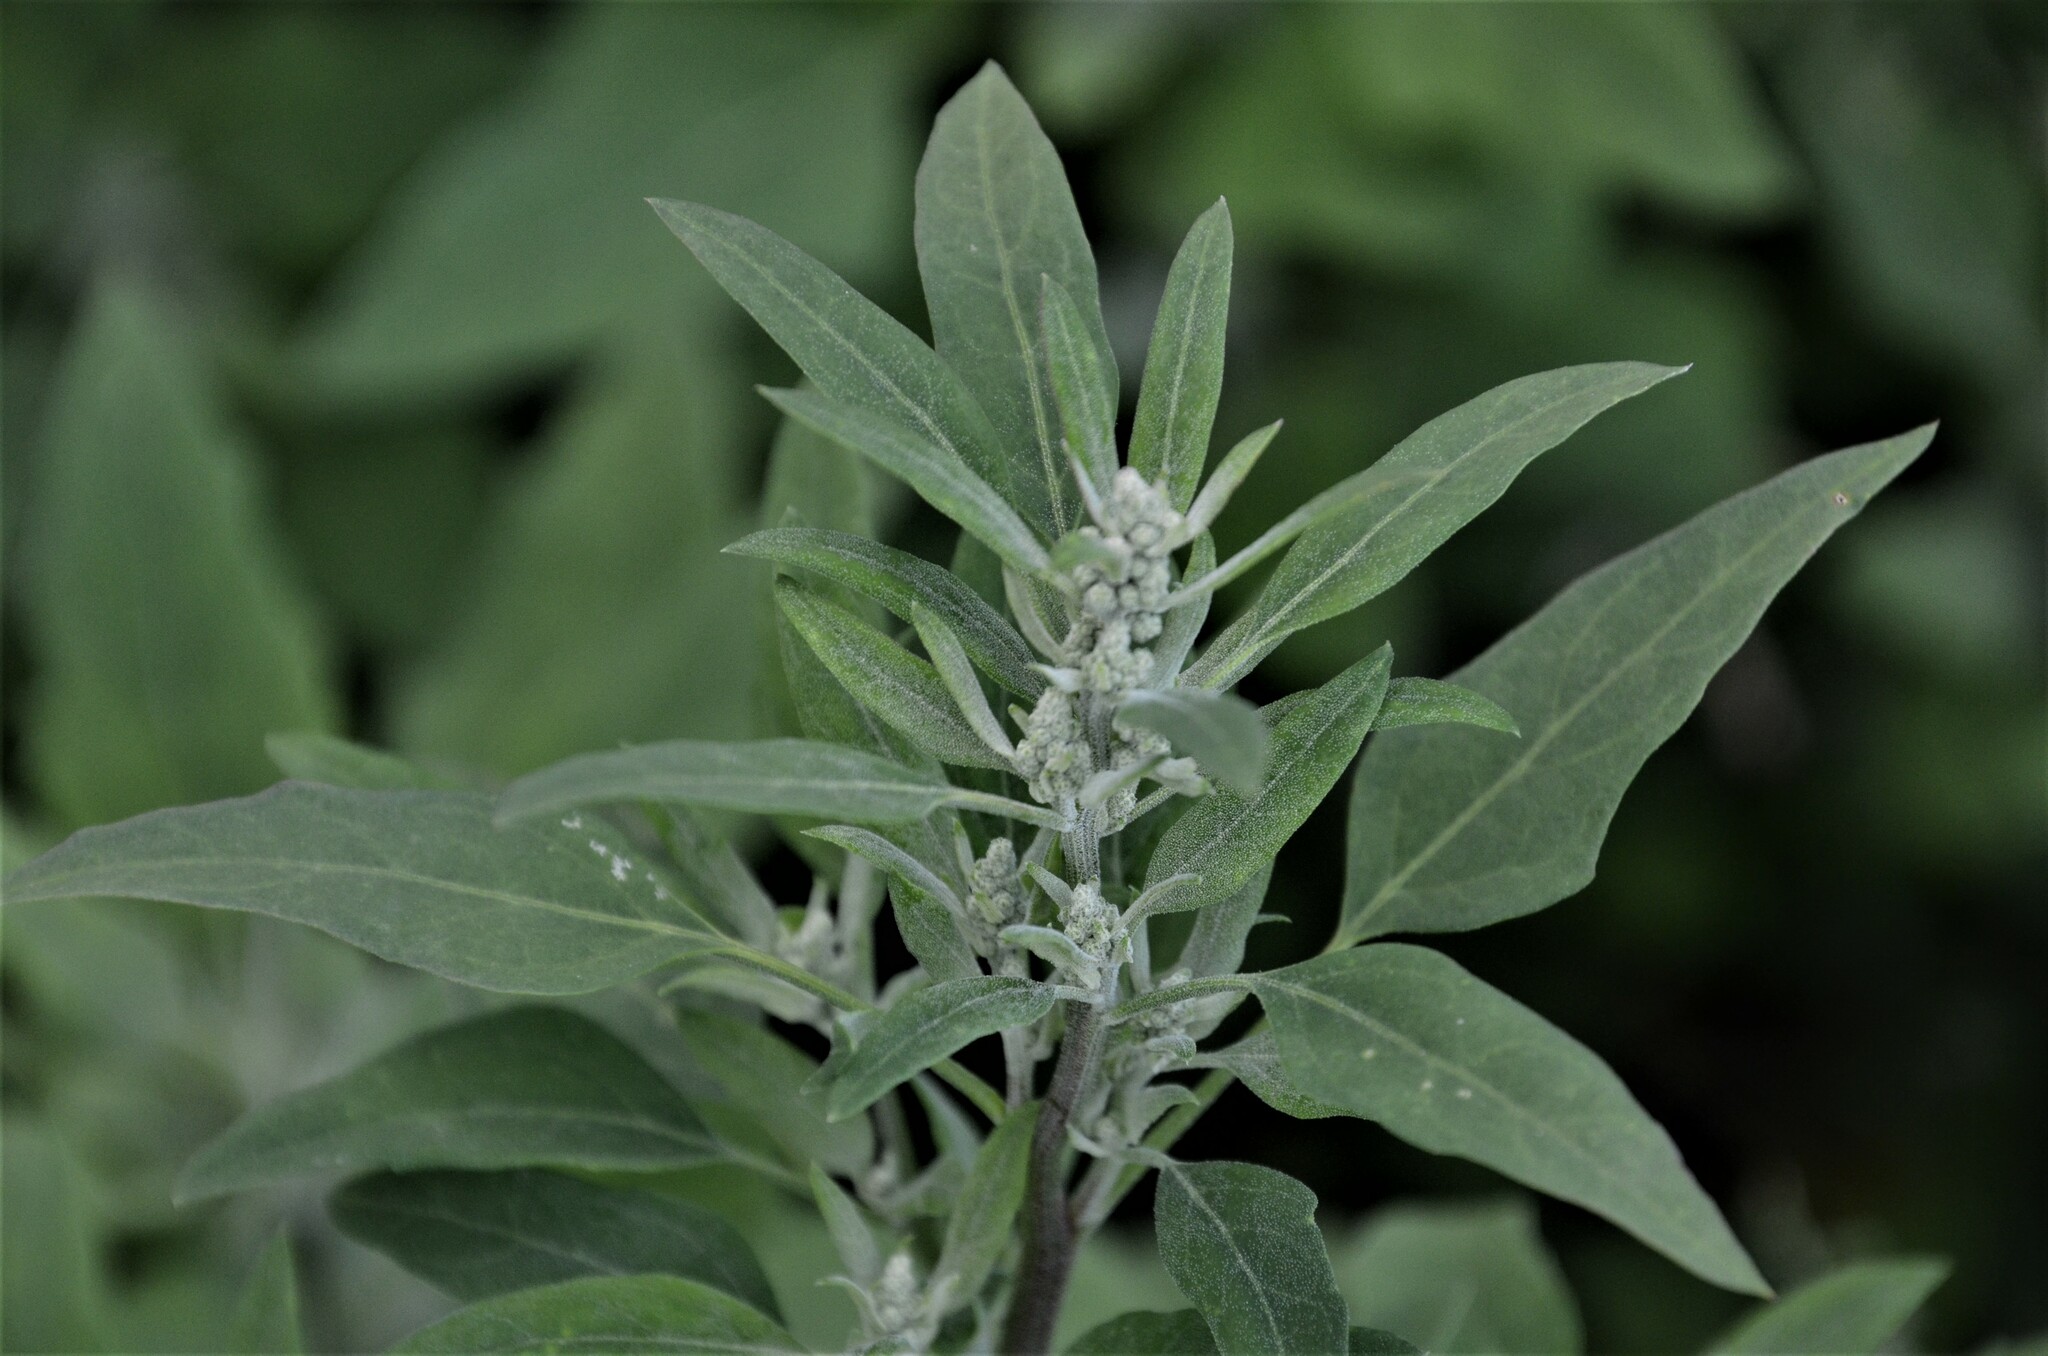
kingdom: Plantae
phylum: Tracheophyta
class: Magnoliopsida
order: Caryophyllales
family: Amaranthaceae
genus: Chenopodium
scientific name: Chenopodium album
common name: Fat-hen
